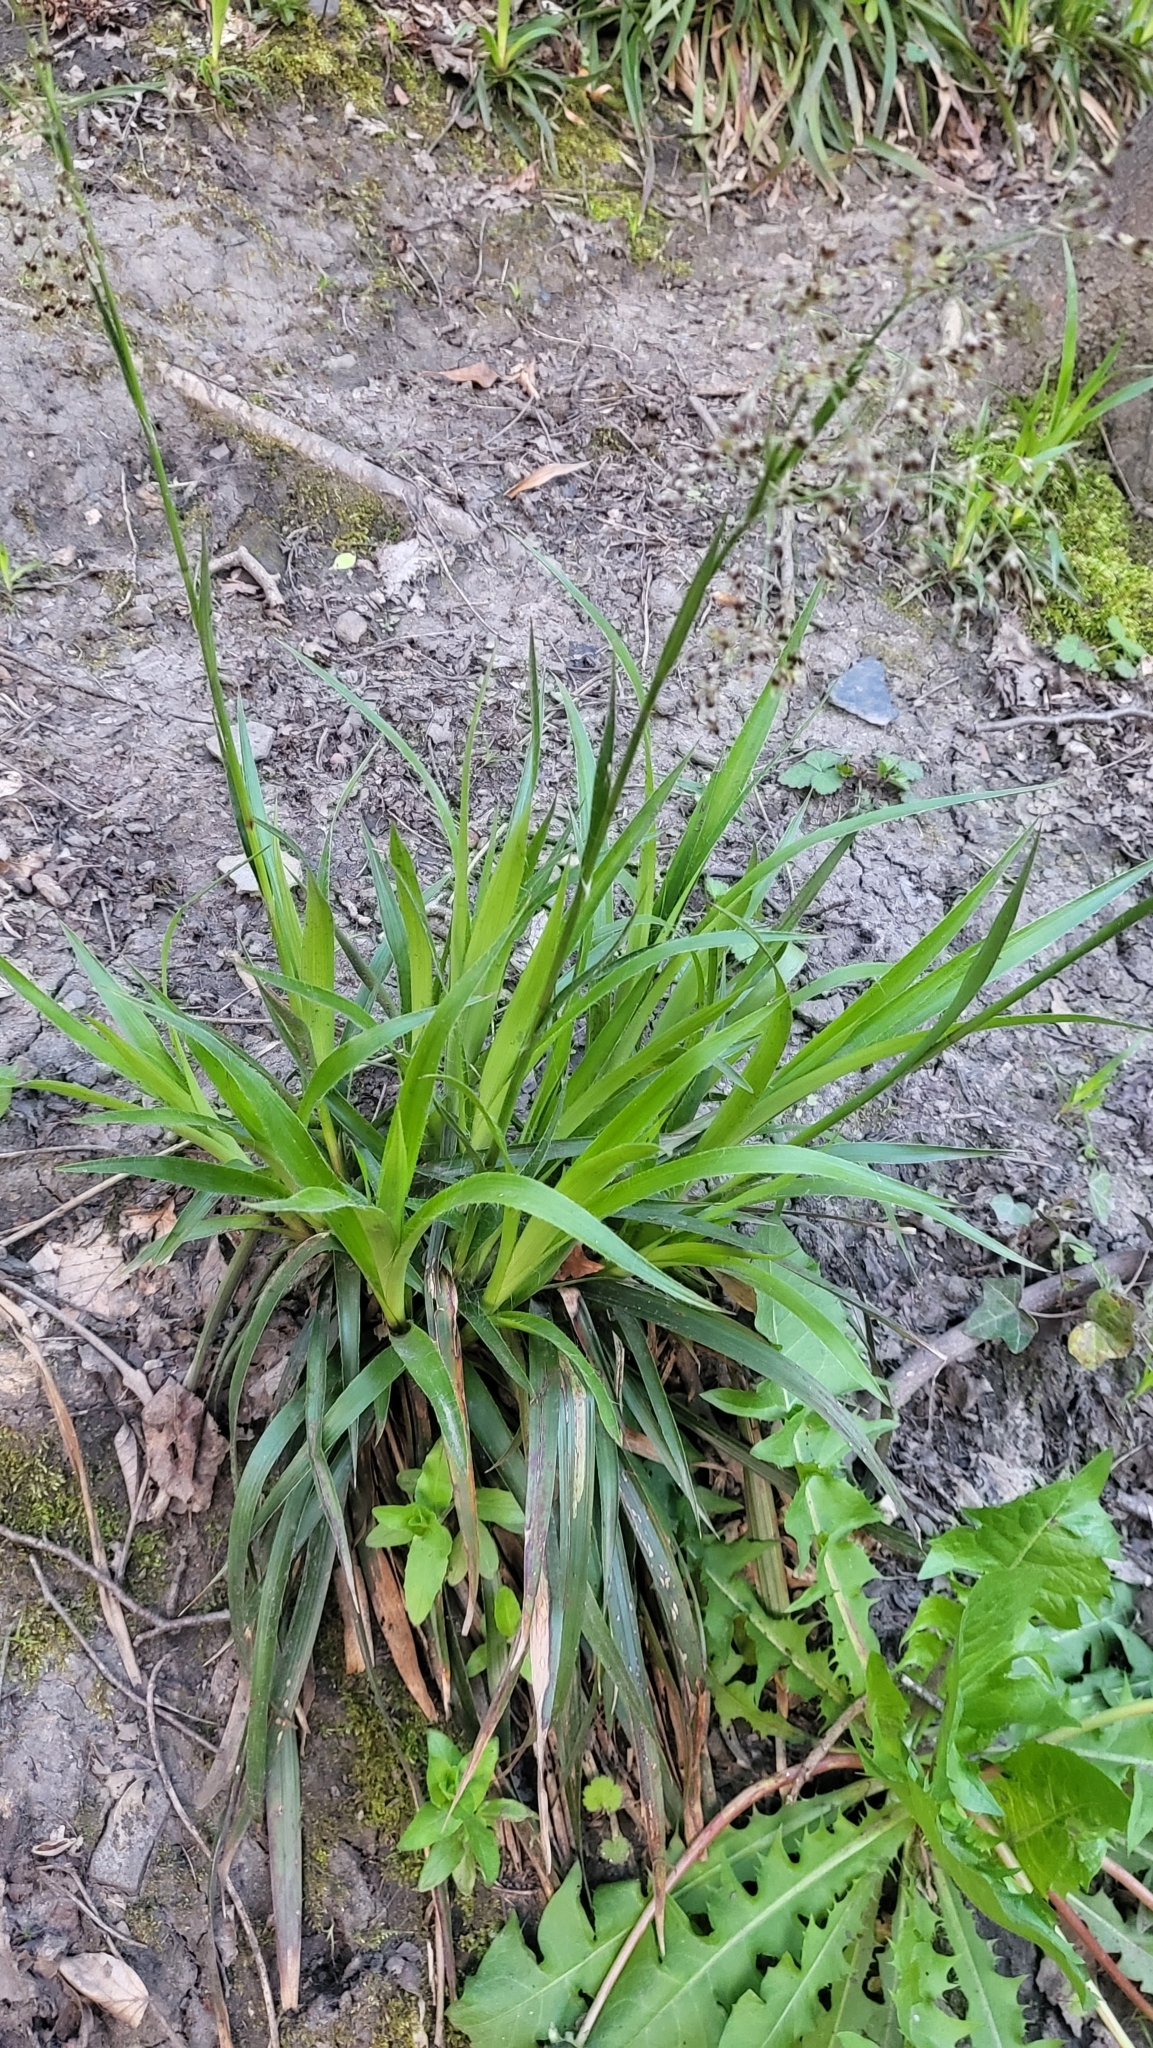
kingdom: Plantae
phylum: Tracheophyta
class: Liliopsida
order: Poales
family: Juncaceae
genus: Luzula
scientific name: Luzula sylvatica
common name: Great wood-rush
